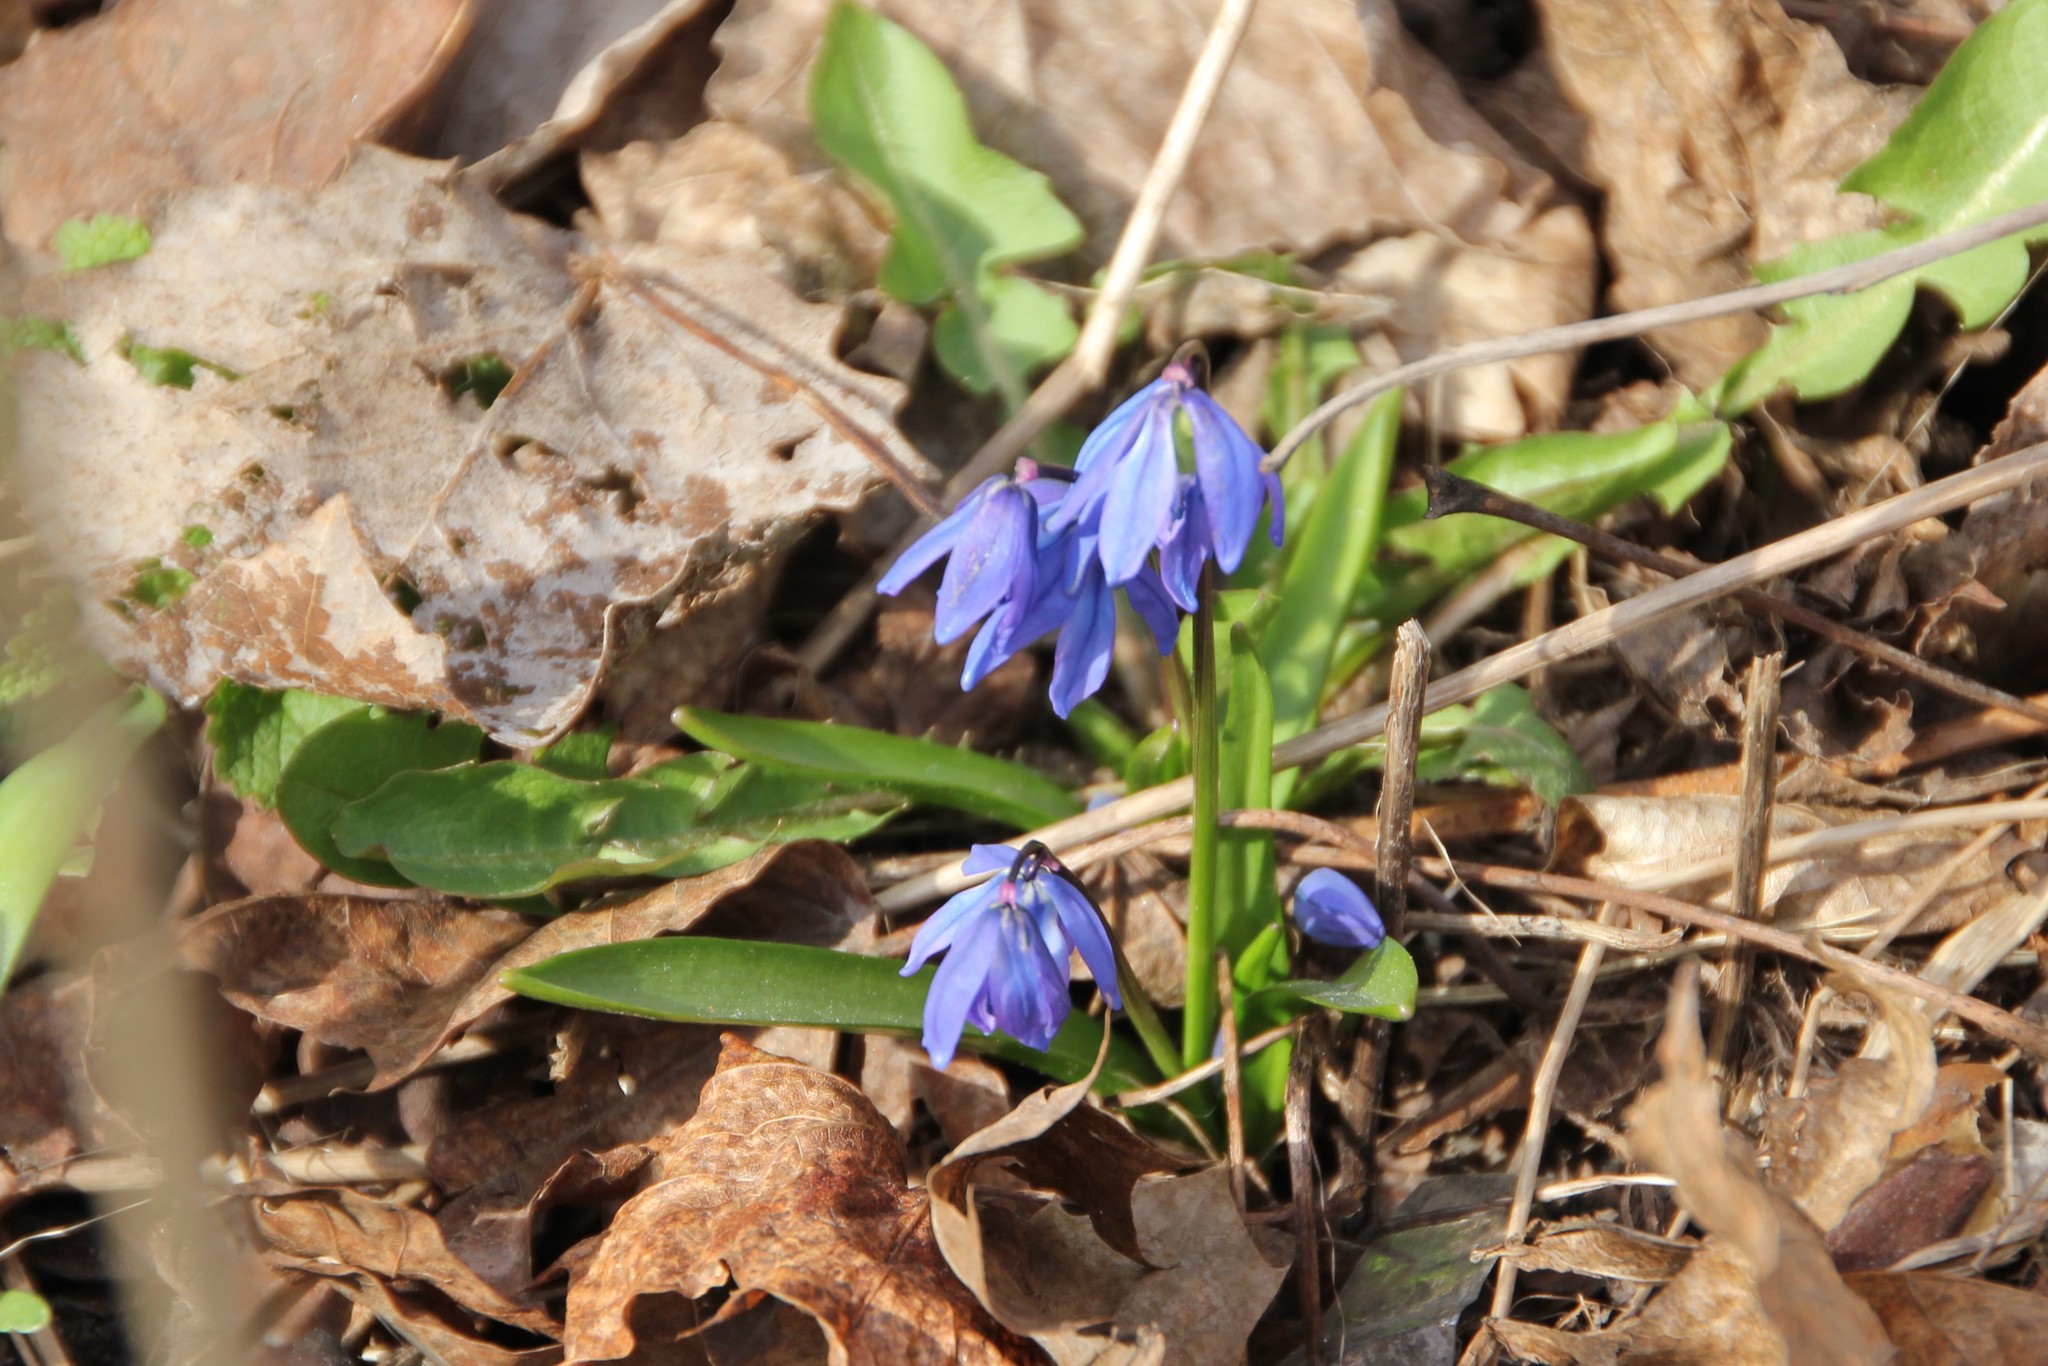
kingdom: Plantae
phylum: Tracheophyta
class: Liliopsida
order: Asparagales
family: Asparagaceae
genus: Scilla
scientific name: Scilla siberica
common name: Siberian squill
